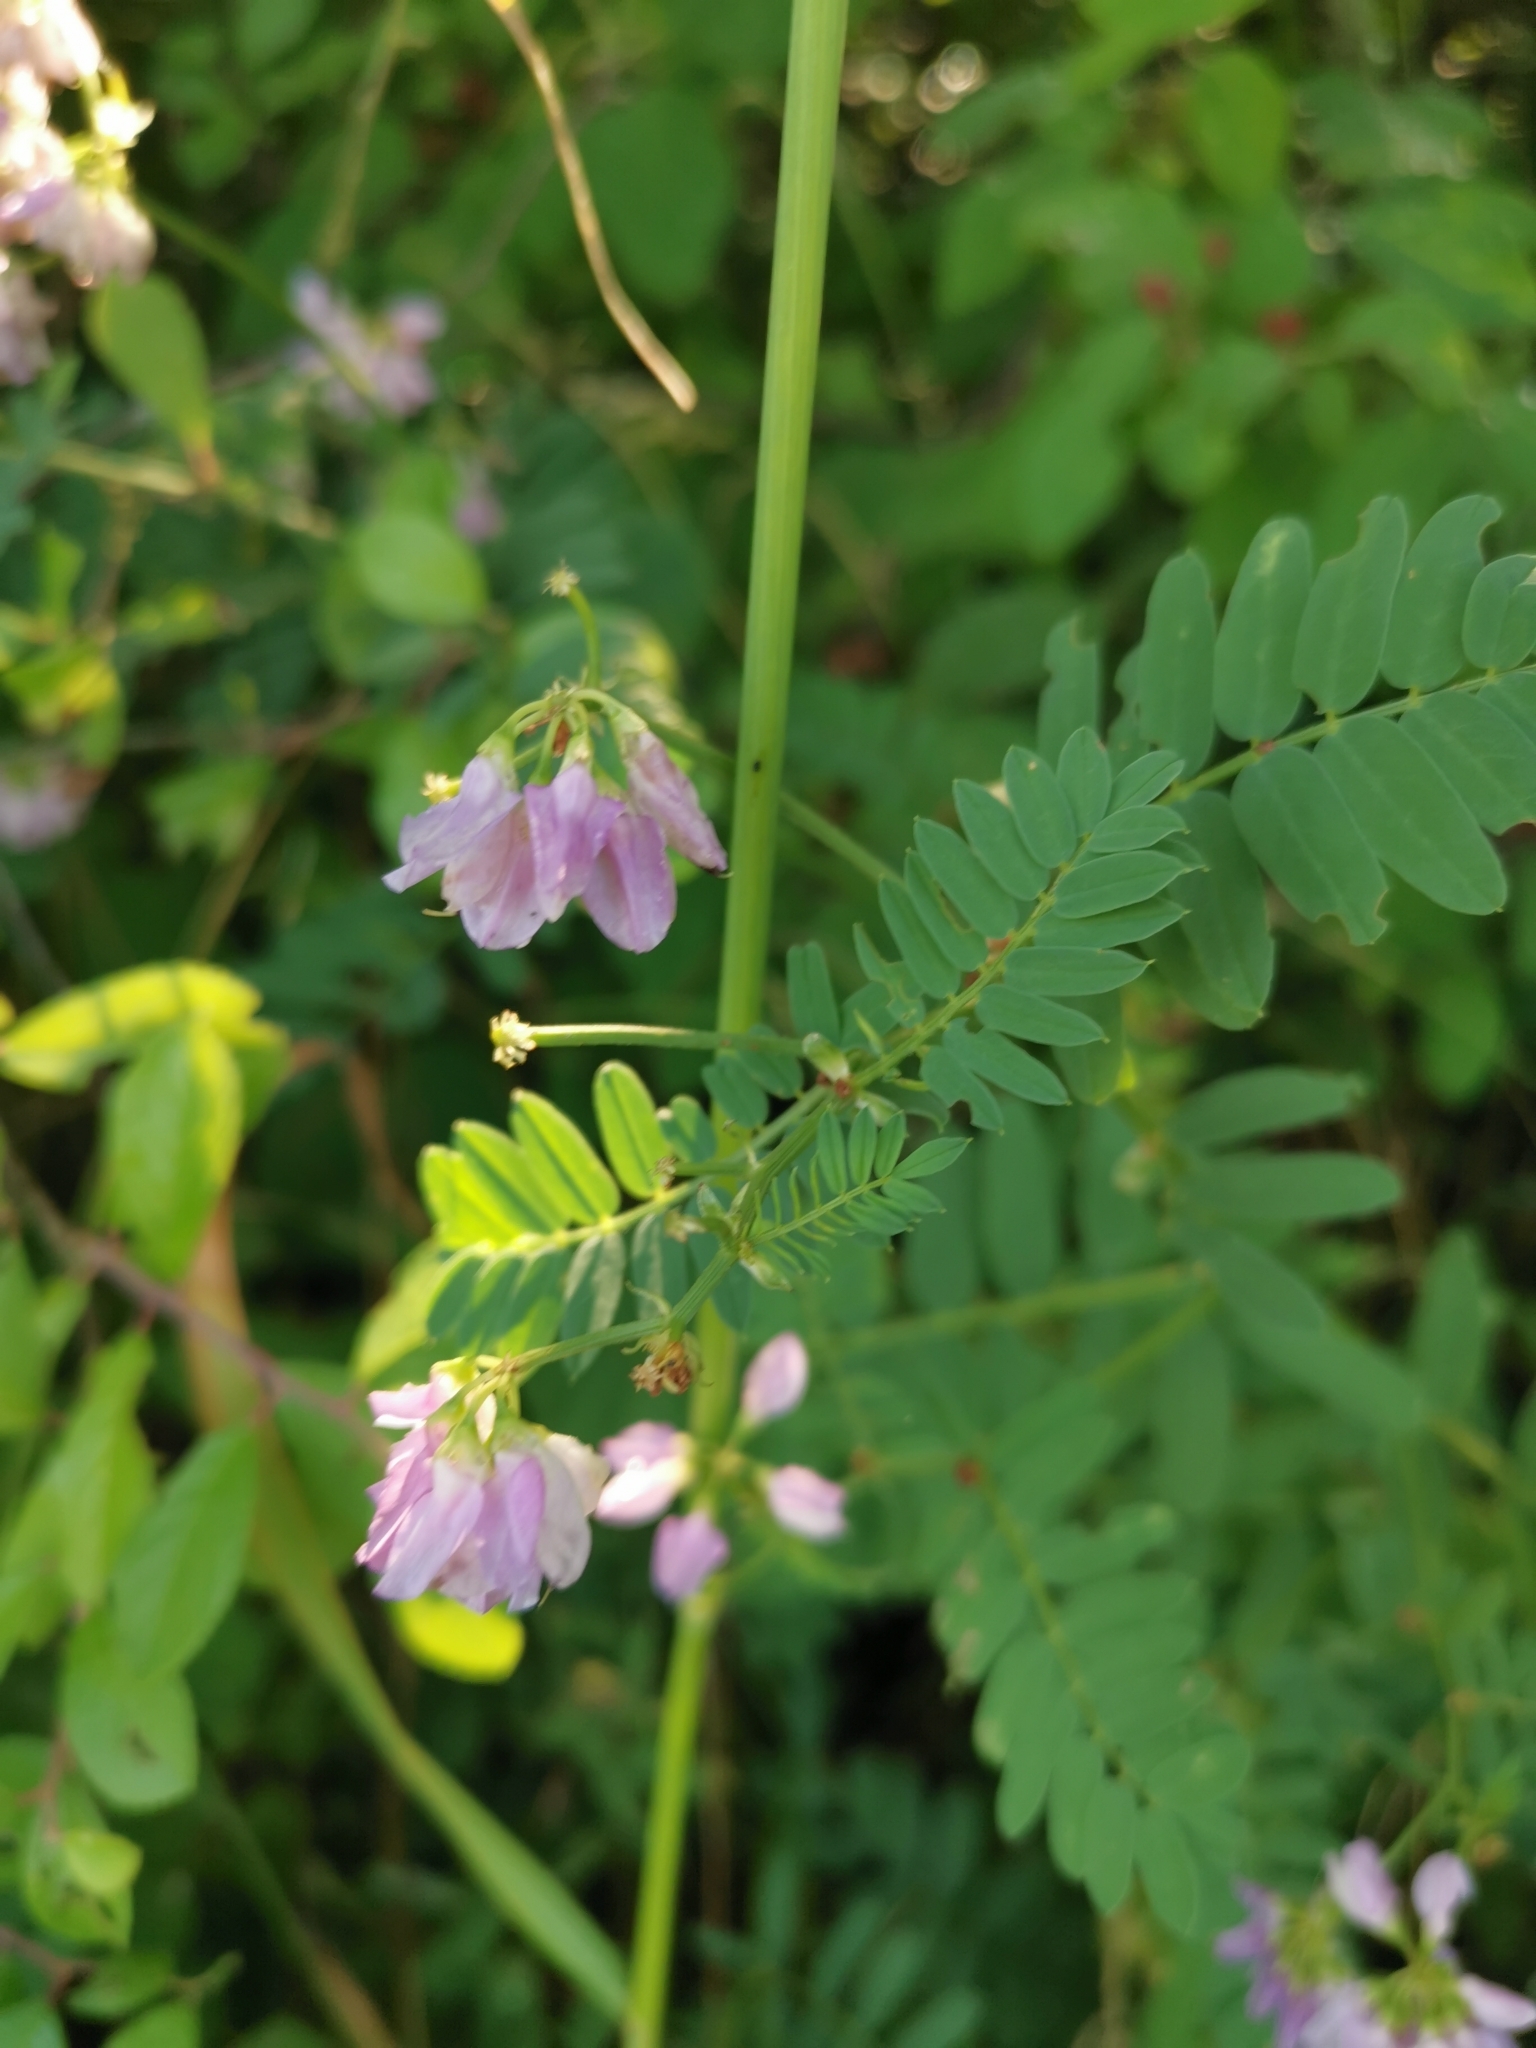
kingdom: Plantae
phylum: Tracheophyta
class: Magnoliopsida
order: Fabales
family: Fabaceae
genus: Coronilla
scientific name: Coronilla varia
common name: Crownvetch
